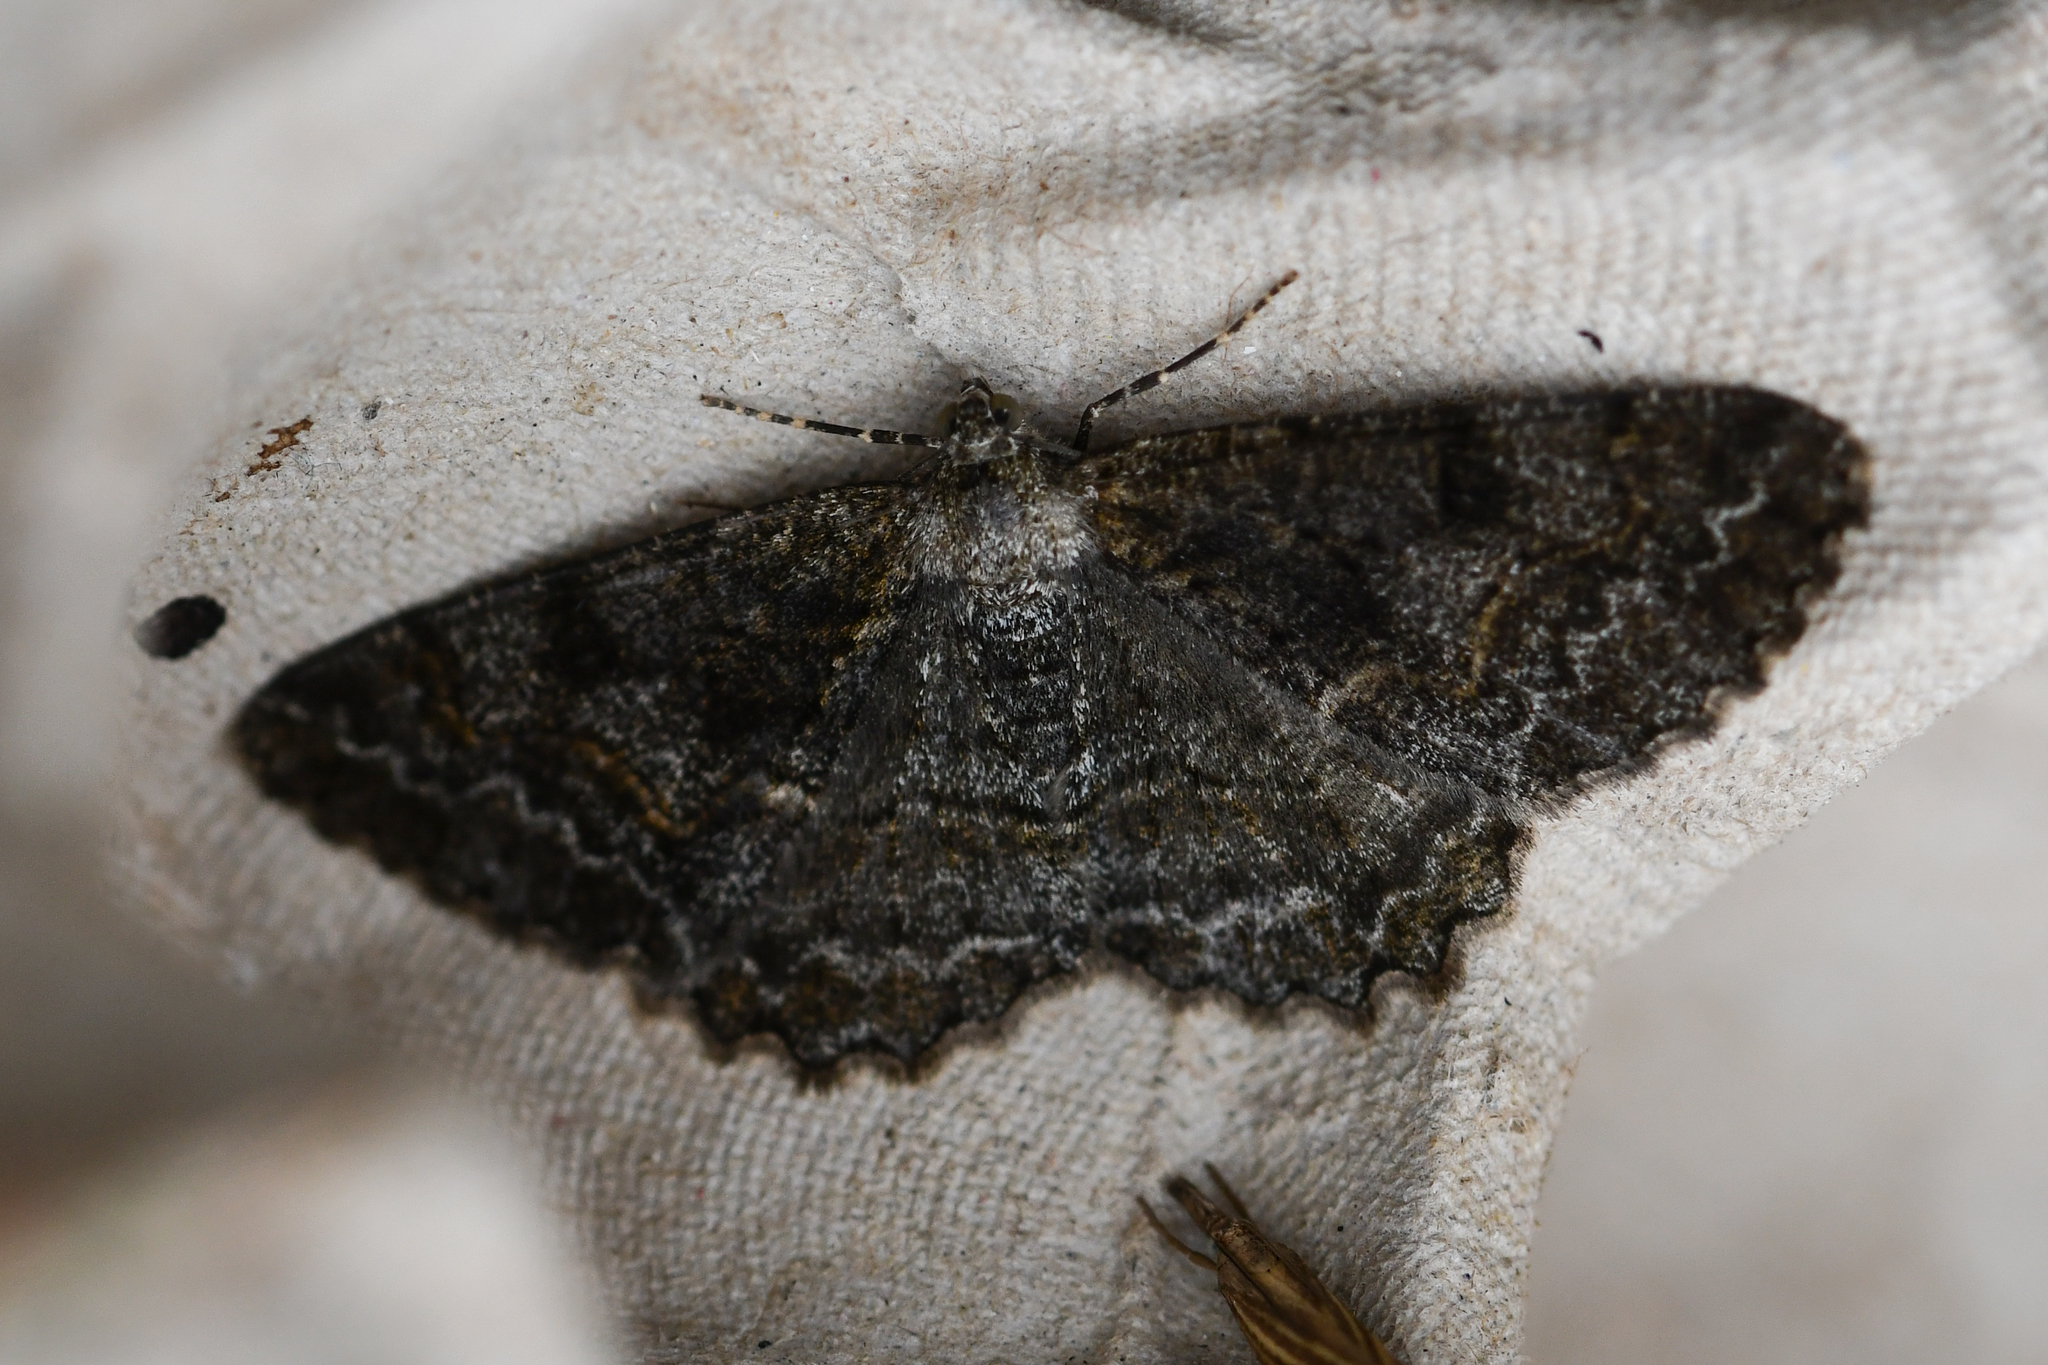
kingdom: Animalia
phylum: Arthropoda
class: Insecta
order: Lepidoptera
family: Geometridae
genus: Alcis
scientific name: Alcis repandata
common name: Mottled beauty
